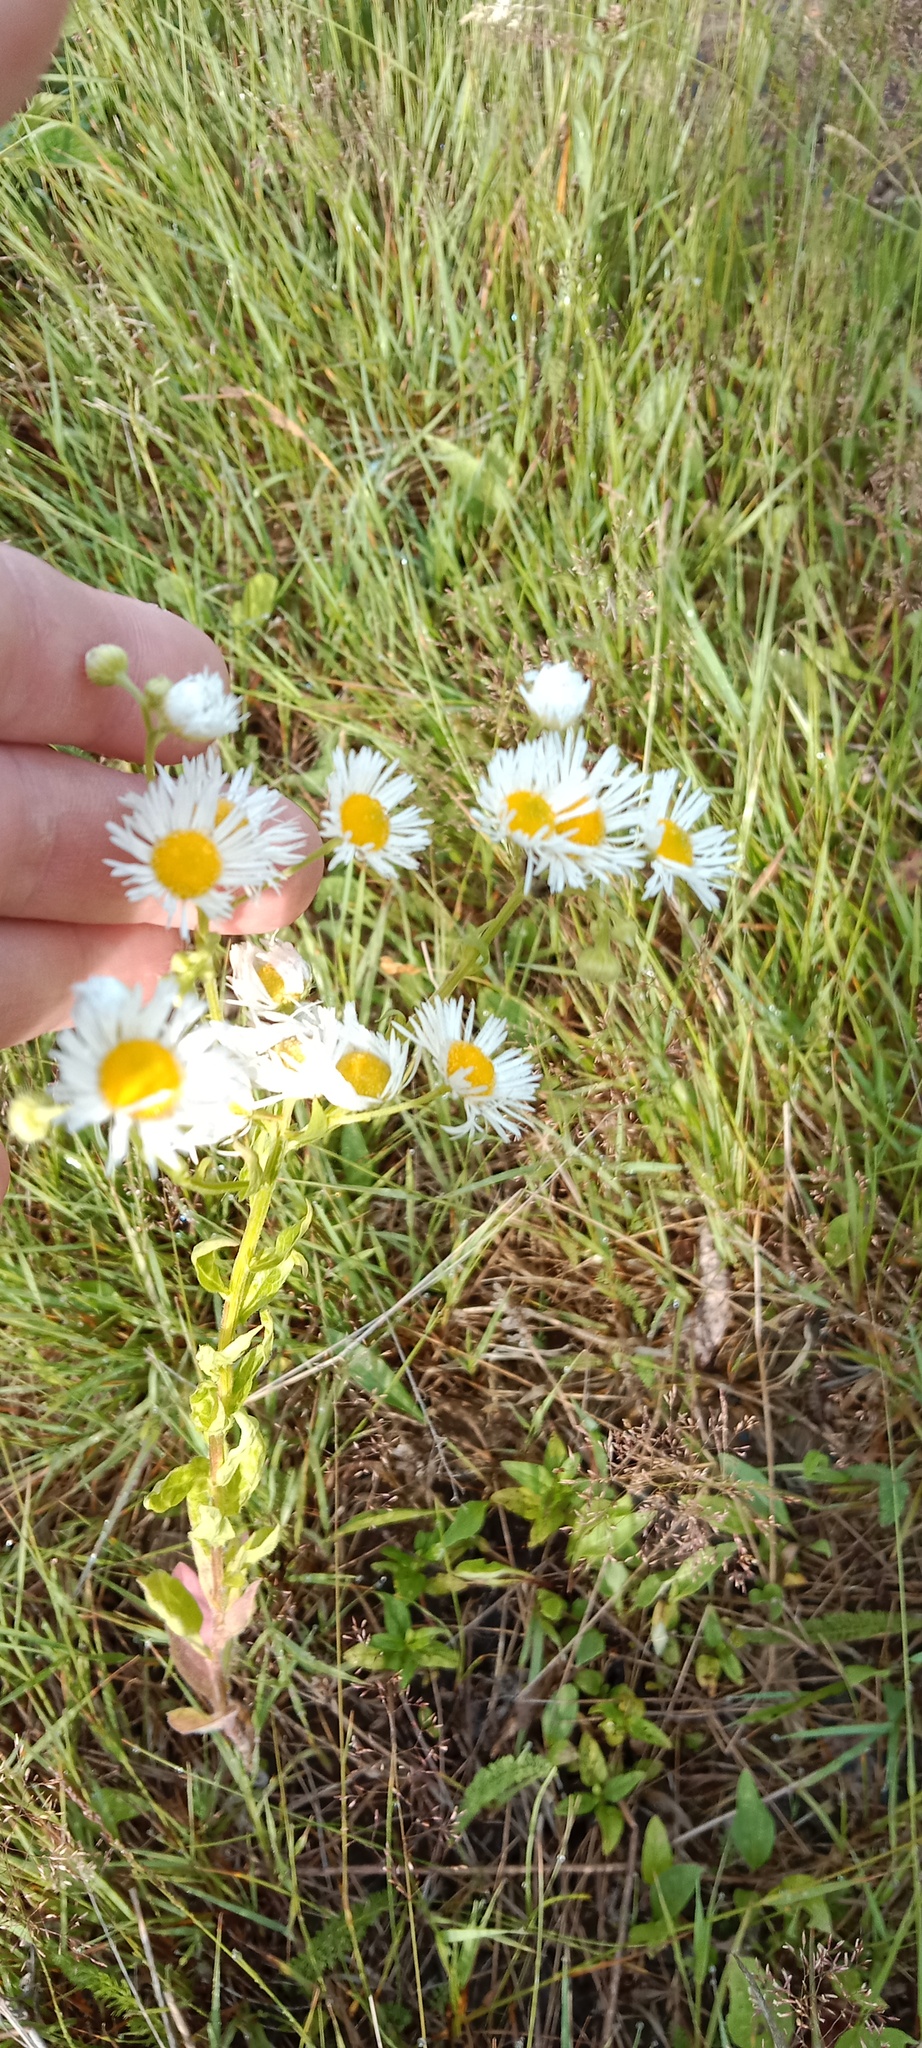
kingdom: Plantae
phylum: Tracheophyta
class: Magnoliopsida
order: Asterales
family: Asteraceae
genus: Erigeron
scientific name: Erigeron annuus
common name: Tall fleabane
